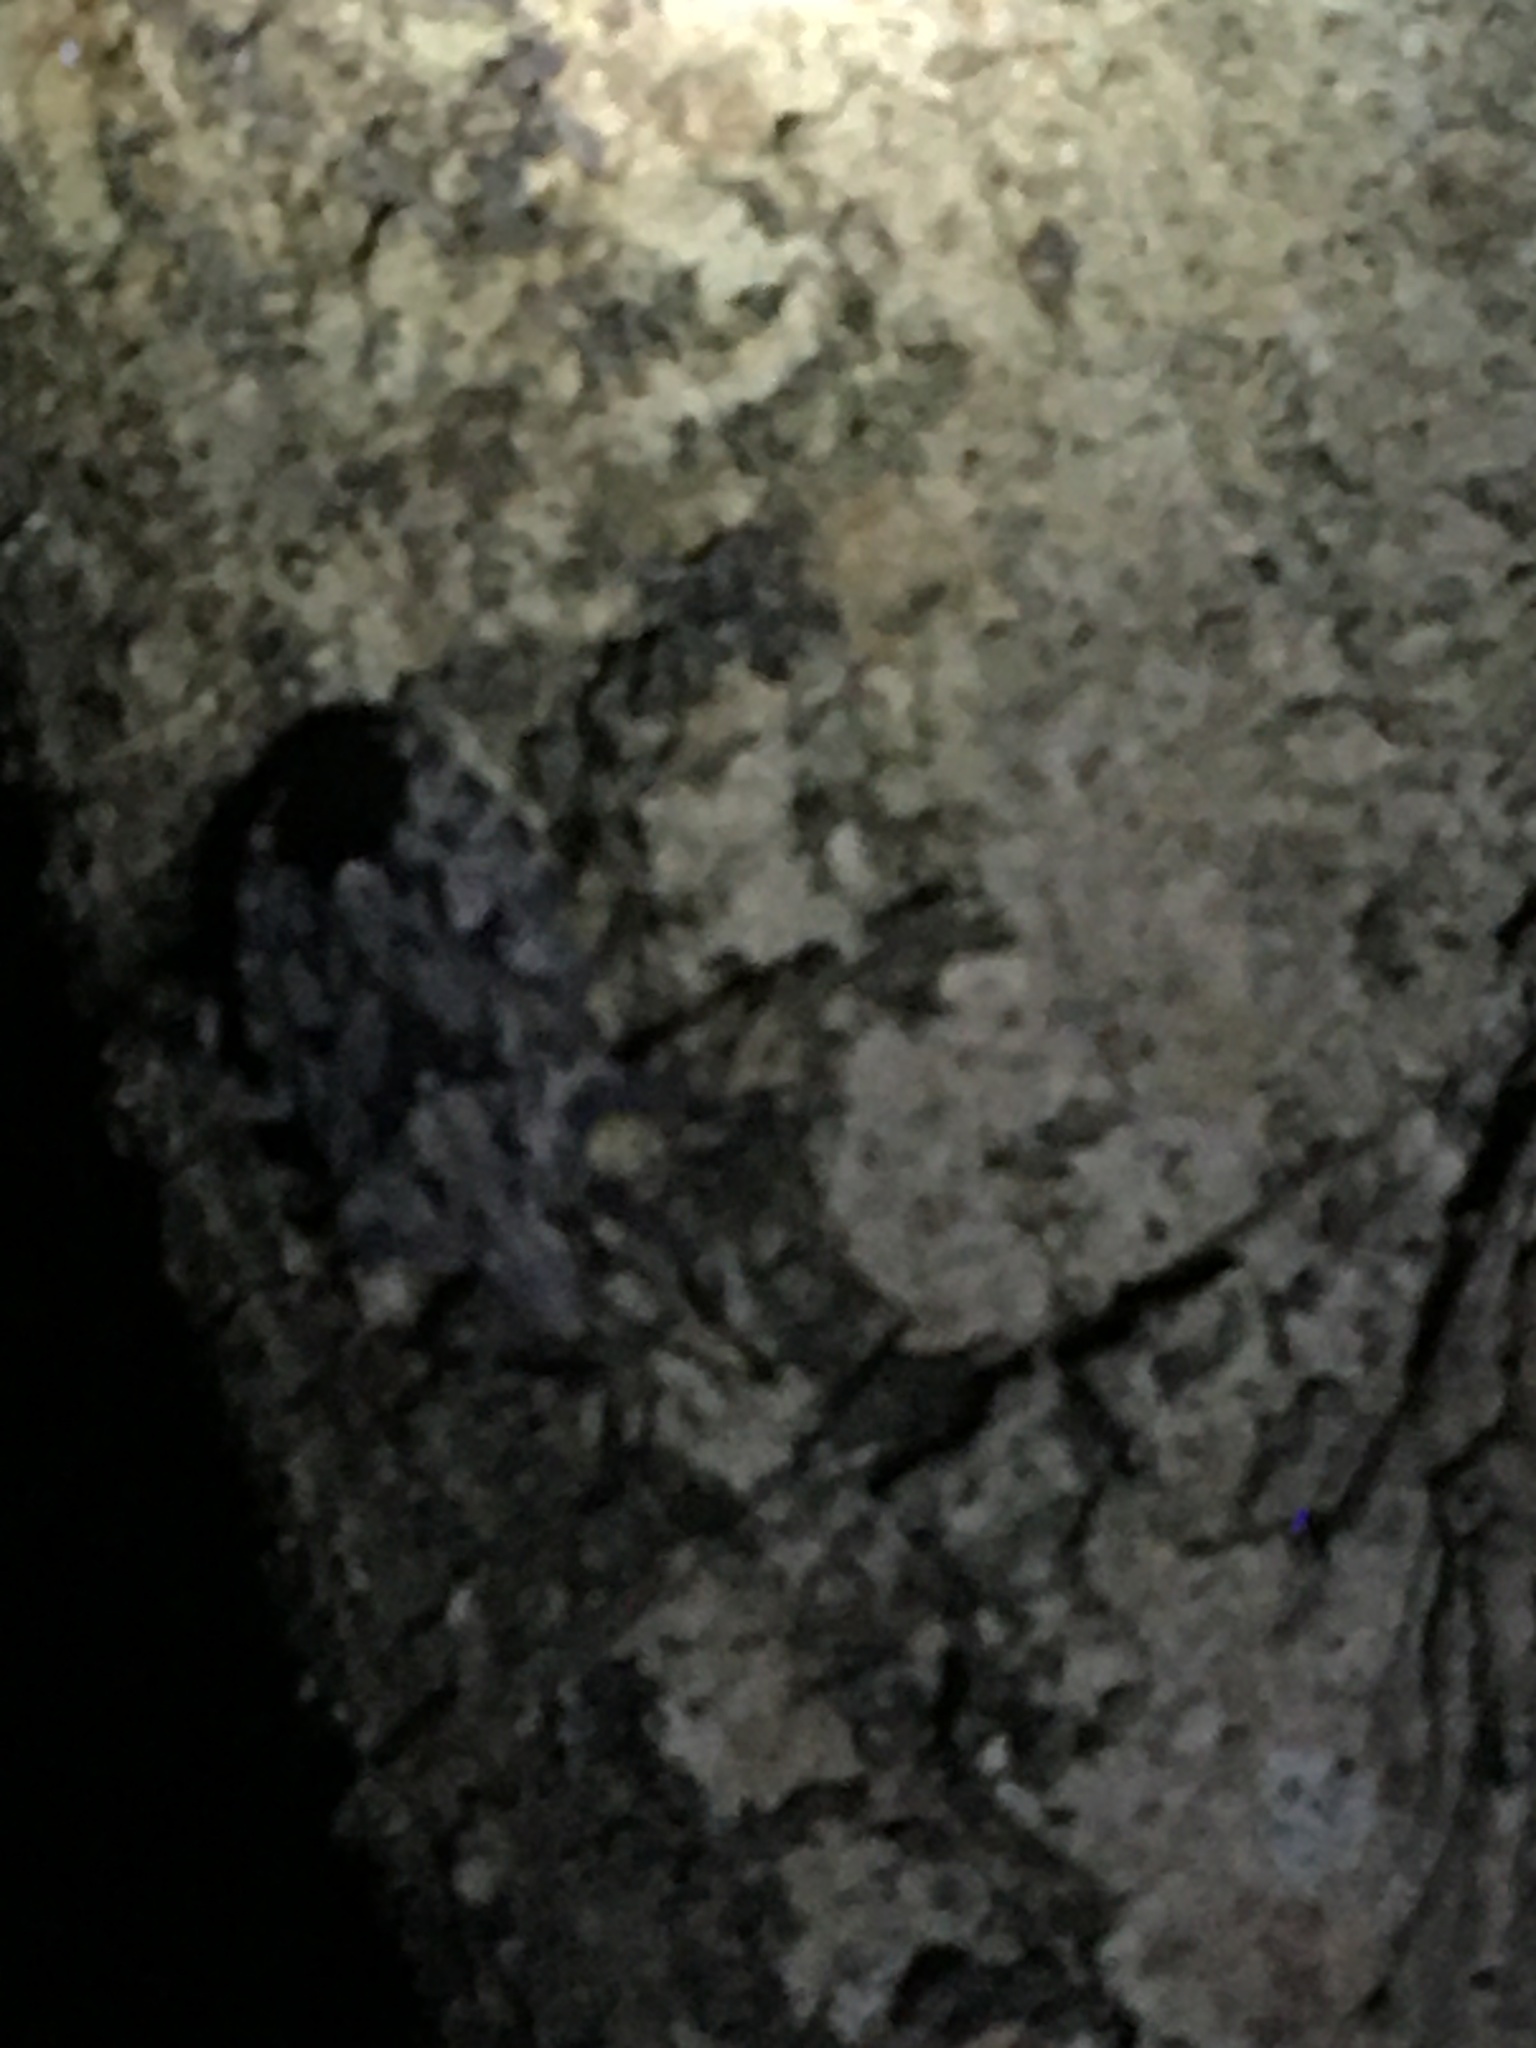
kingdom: Animalia
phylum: Arthropoda
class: Insecta
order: Hemiptera
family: Pentatomidae
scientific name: Pentatomidae
